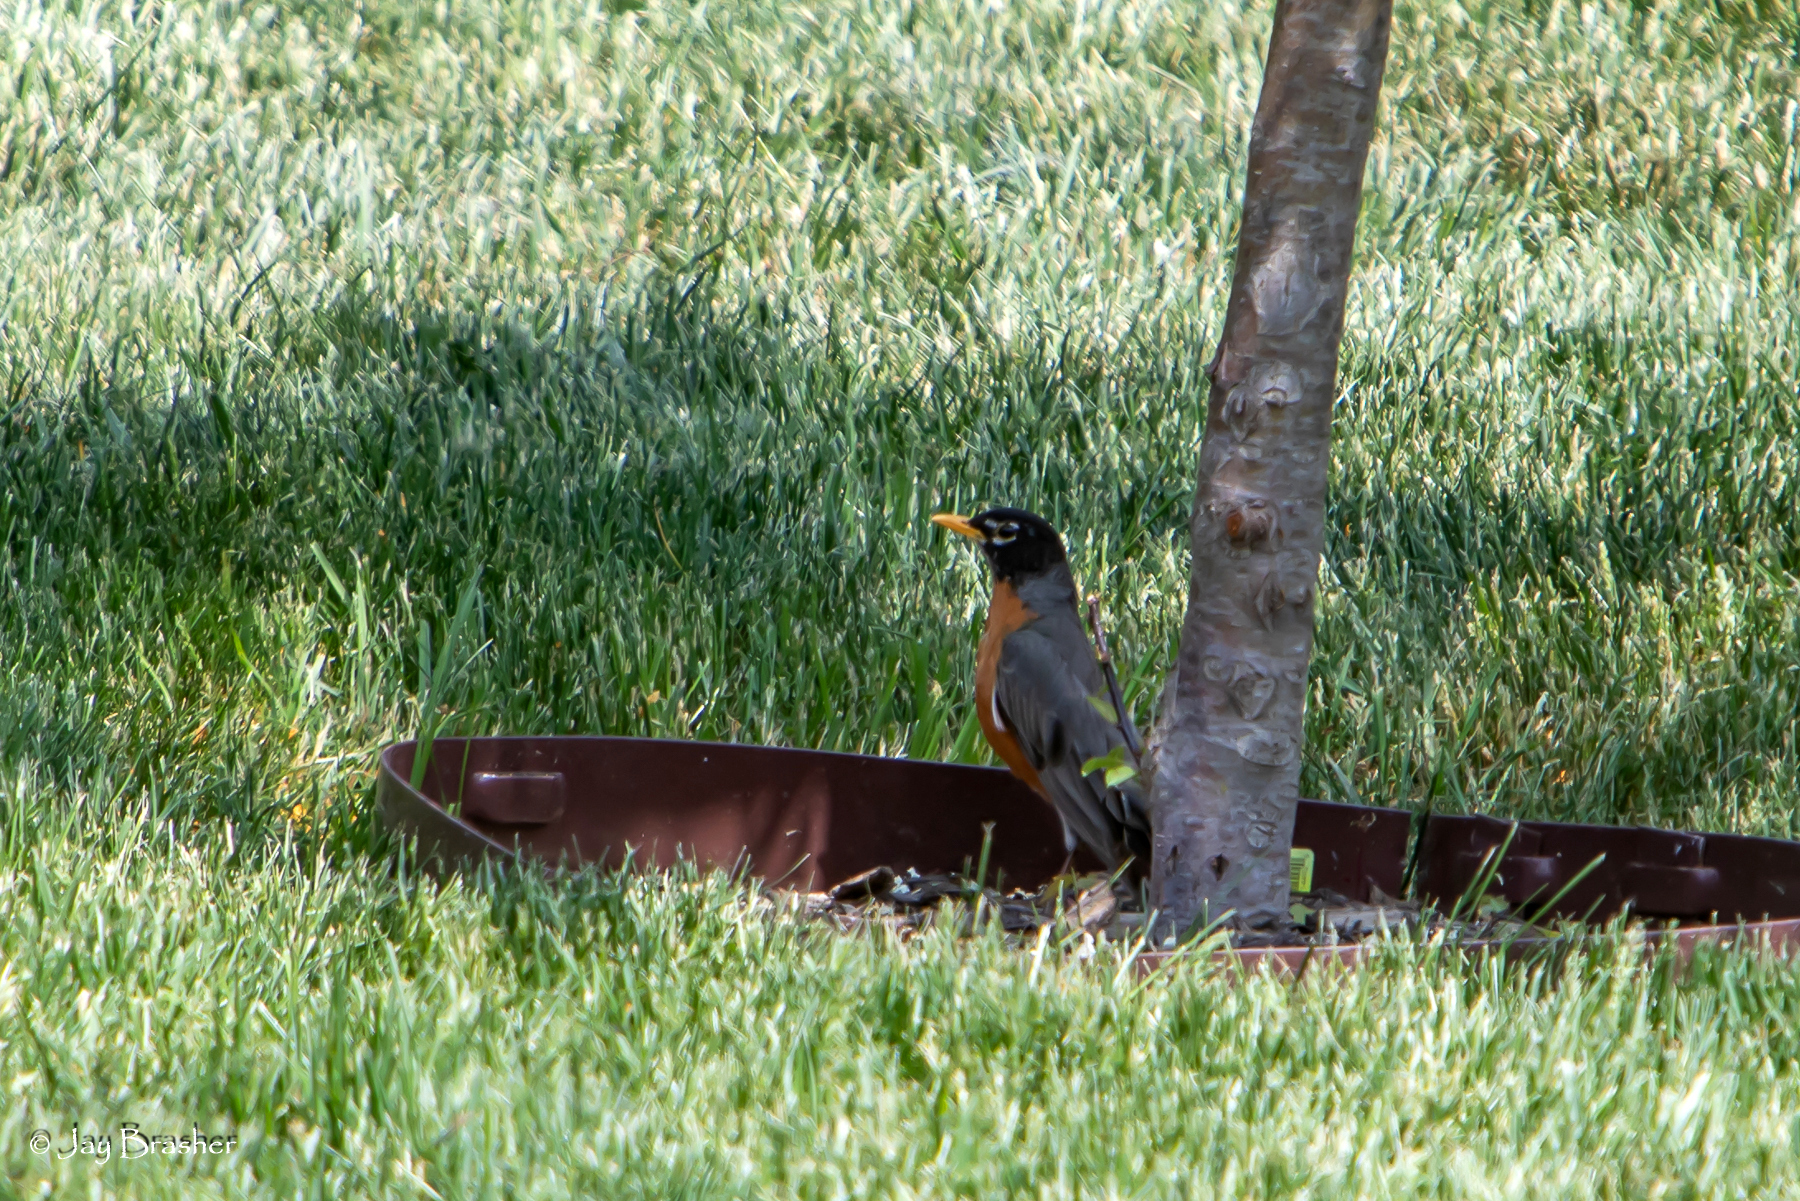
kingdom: Animalia
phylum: Chordata
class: Aves
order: Passeriformes
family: Turdidae
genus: Turdus
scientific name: Turdus migratorius
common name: American robin
